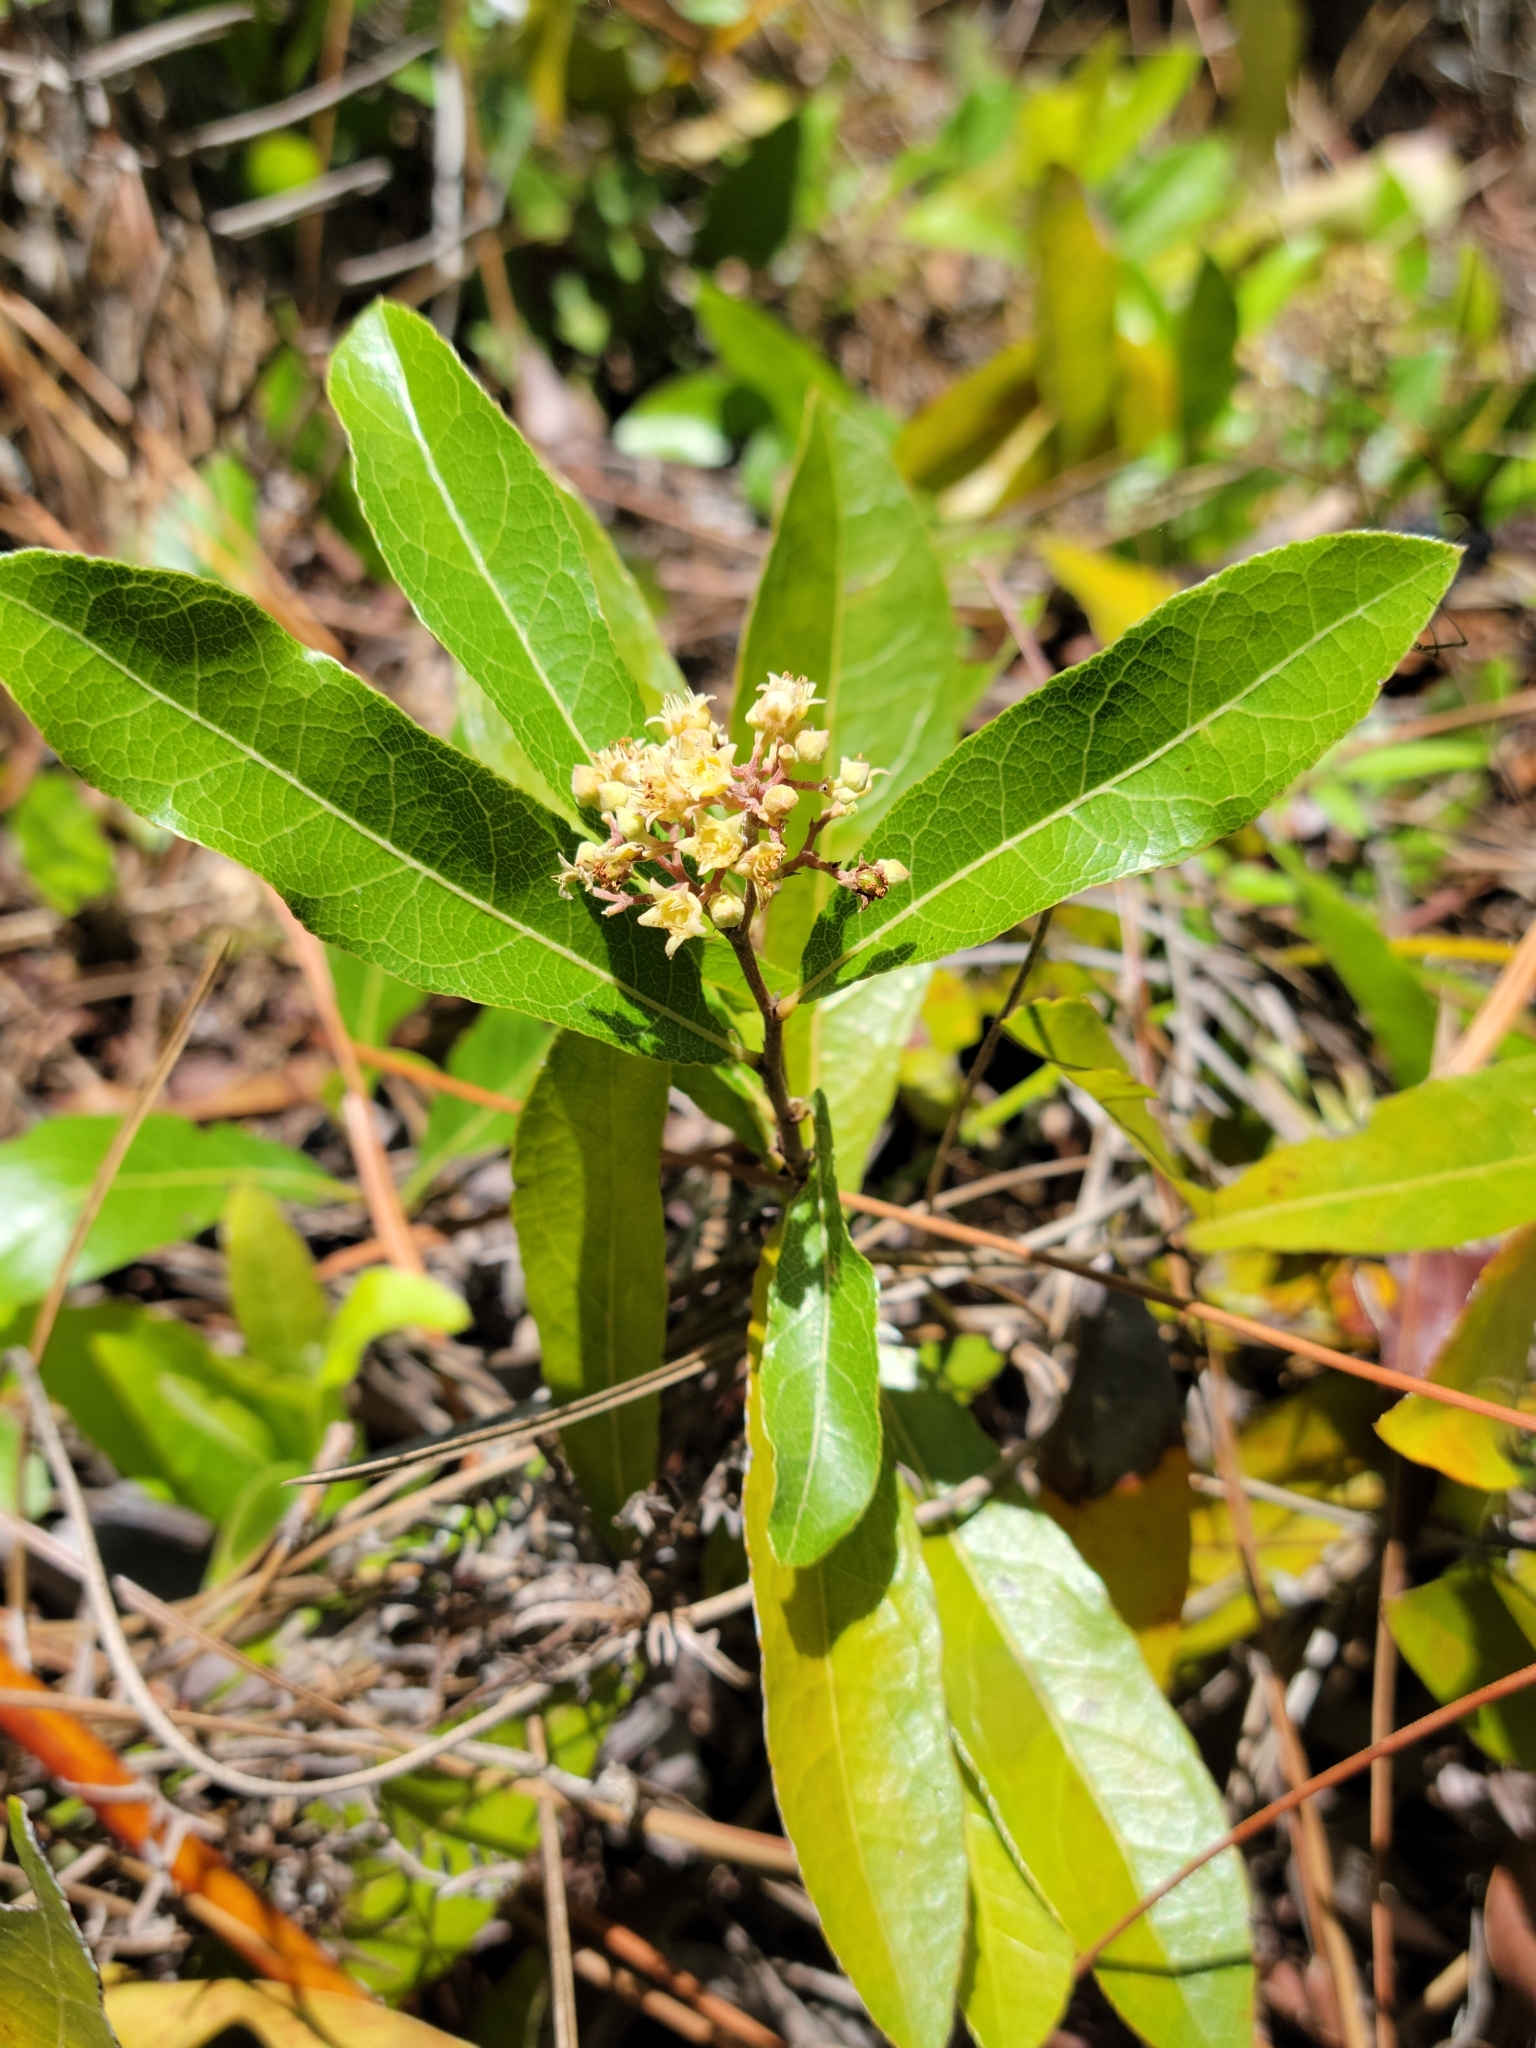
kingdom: Plantae
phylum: Tracheophyta
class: Magnoliopsida
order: Malpighiales
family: Chrysobalanaceae
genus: Geobalanus
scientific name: Geobalanus oblongifolius
